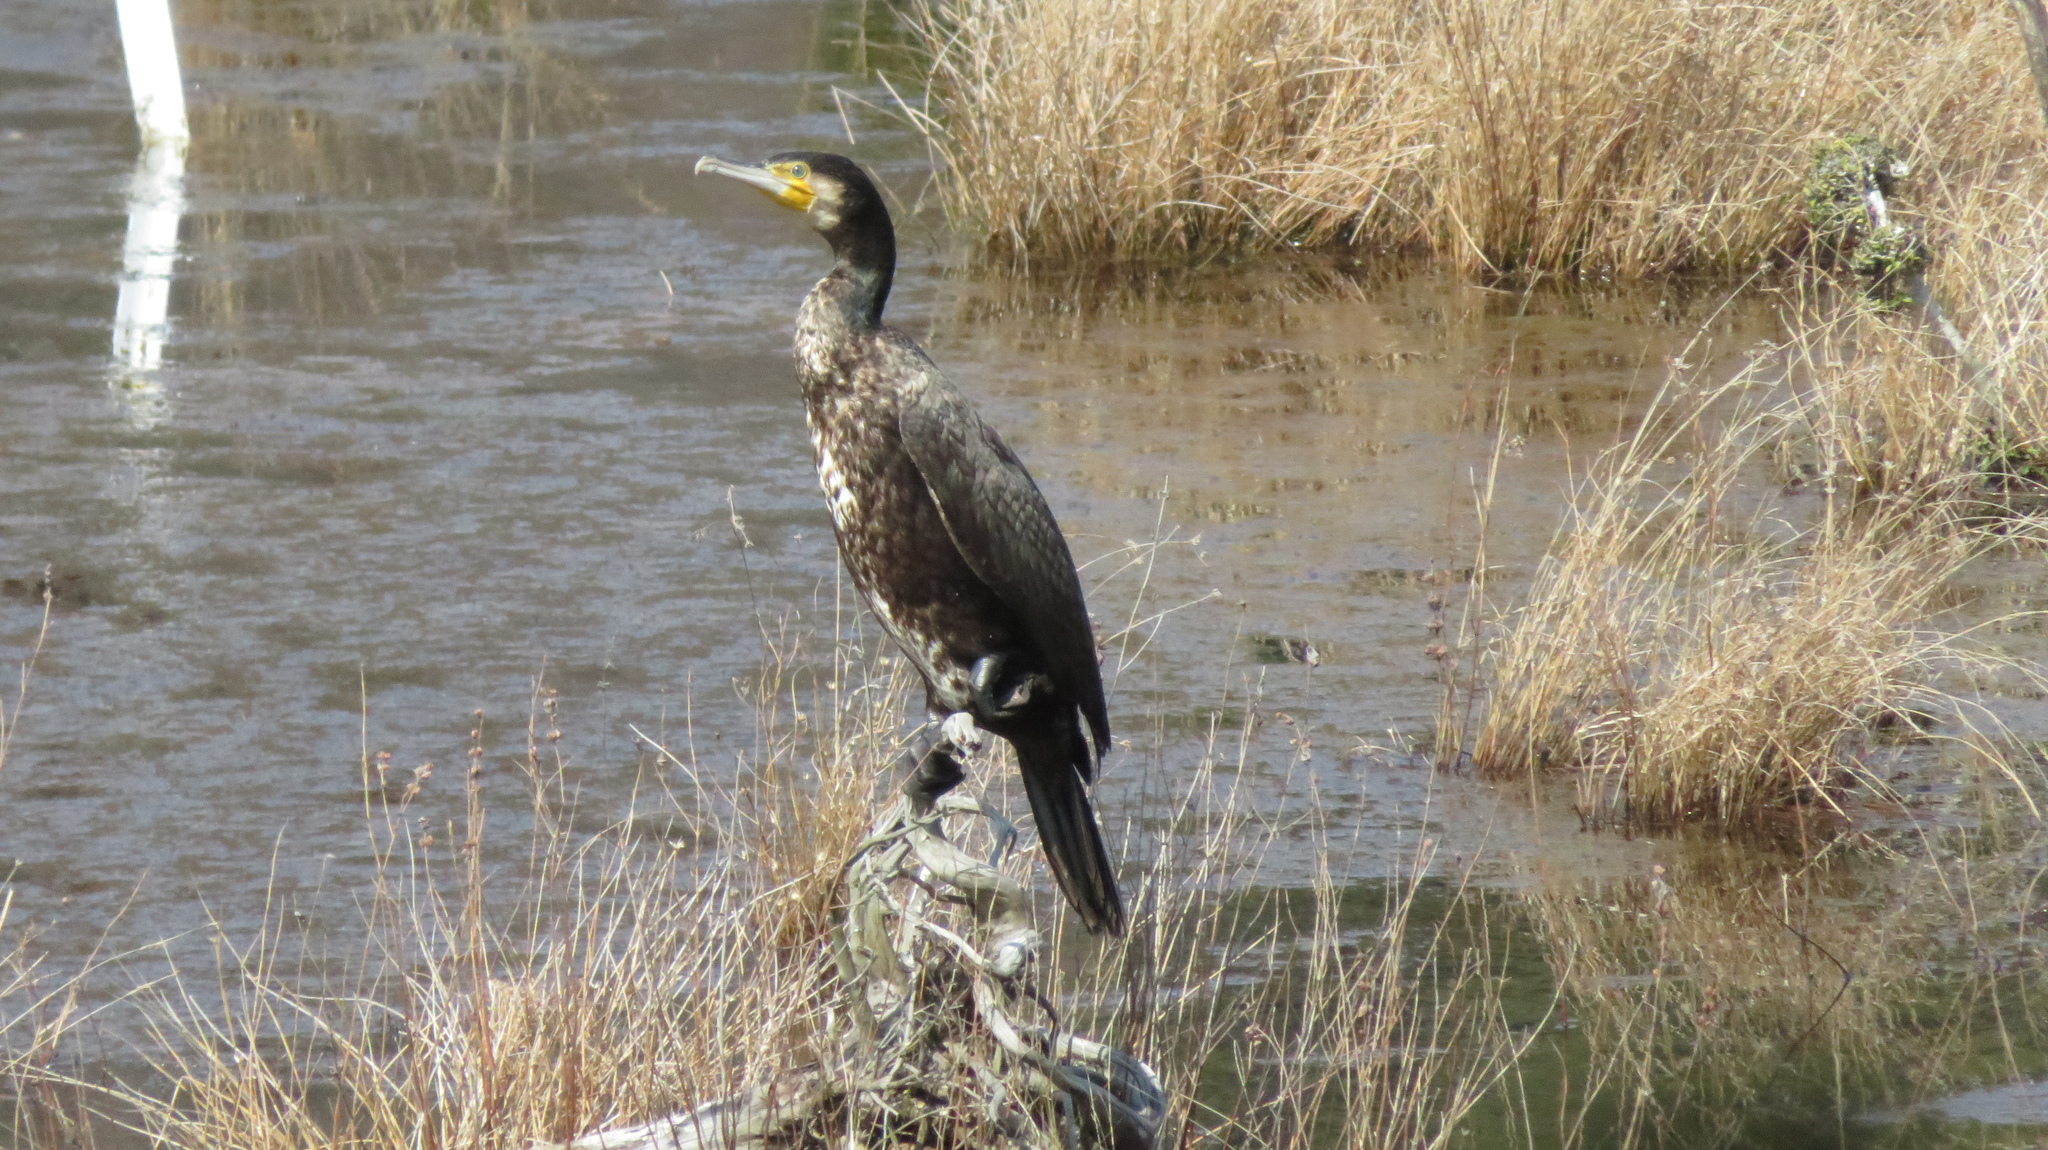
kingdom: Animalia
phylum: Chordata
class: Aves
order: Suliformes
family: Phalacrocoracidae
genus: Phalacrocorax
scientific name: Phalacrocorax carbo
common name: Great cormorant
